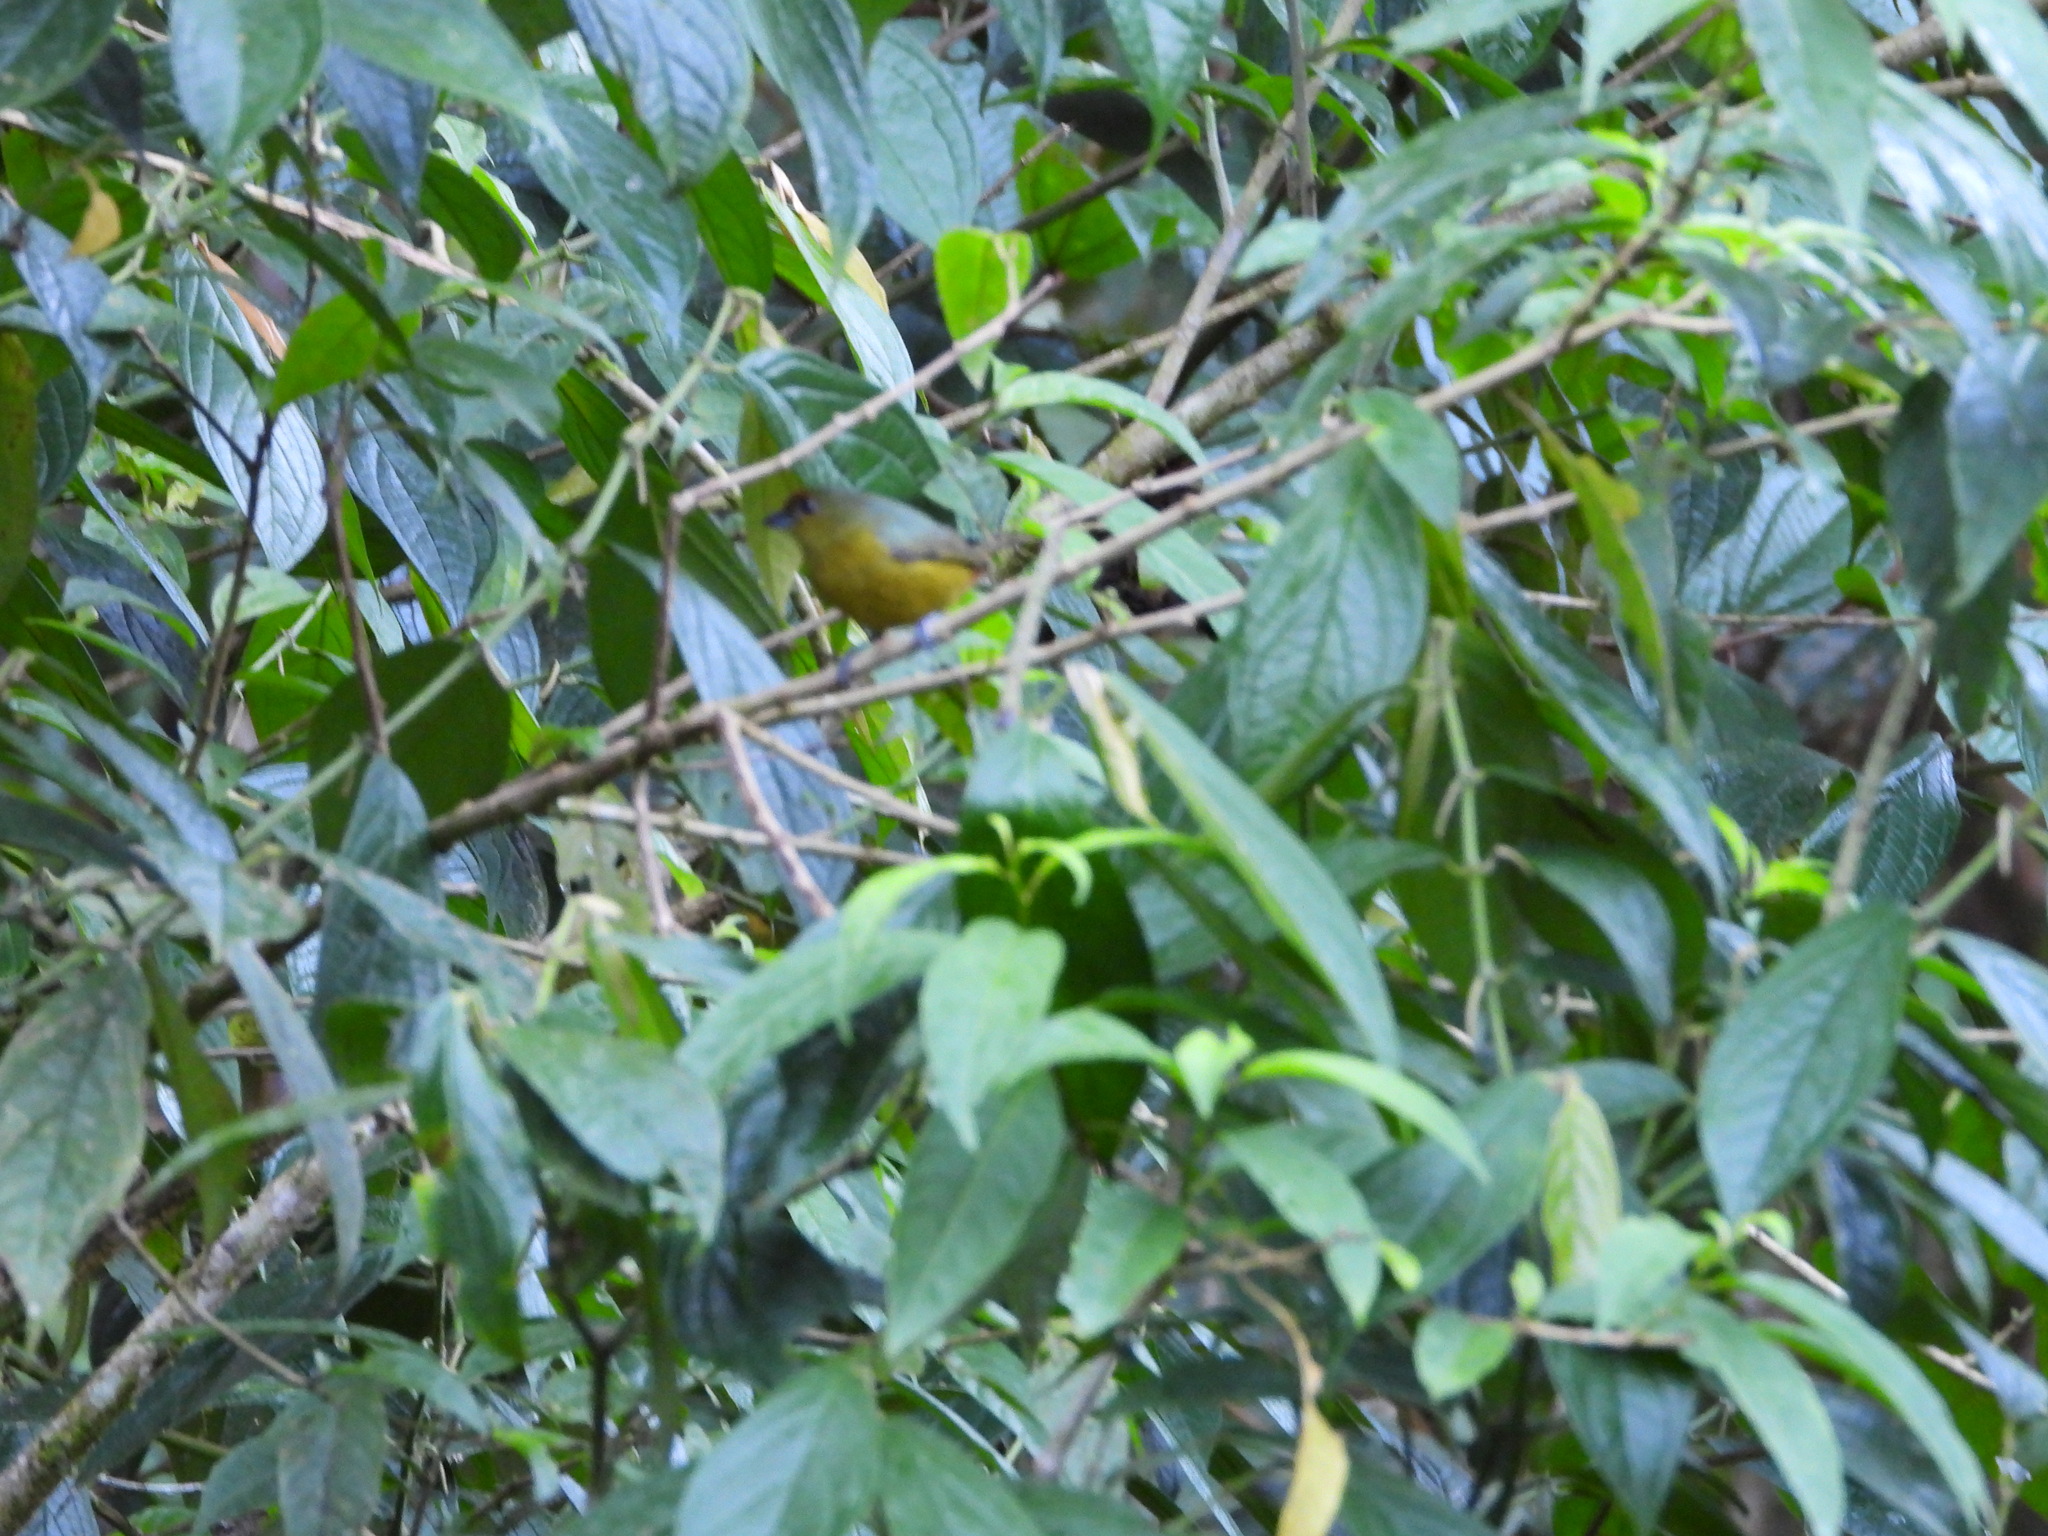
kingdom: Animalia
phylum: Chordata
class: Aves
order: Passeriformes
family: Fringillidae
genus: Euphonia
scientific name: Euphonia gouldi
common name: Olive-backed euphonia
